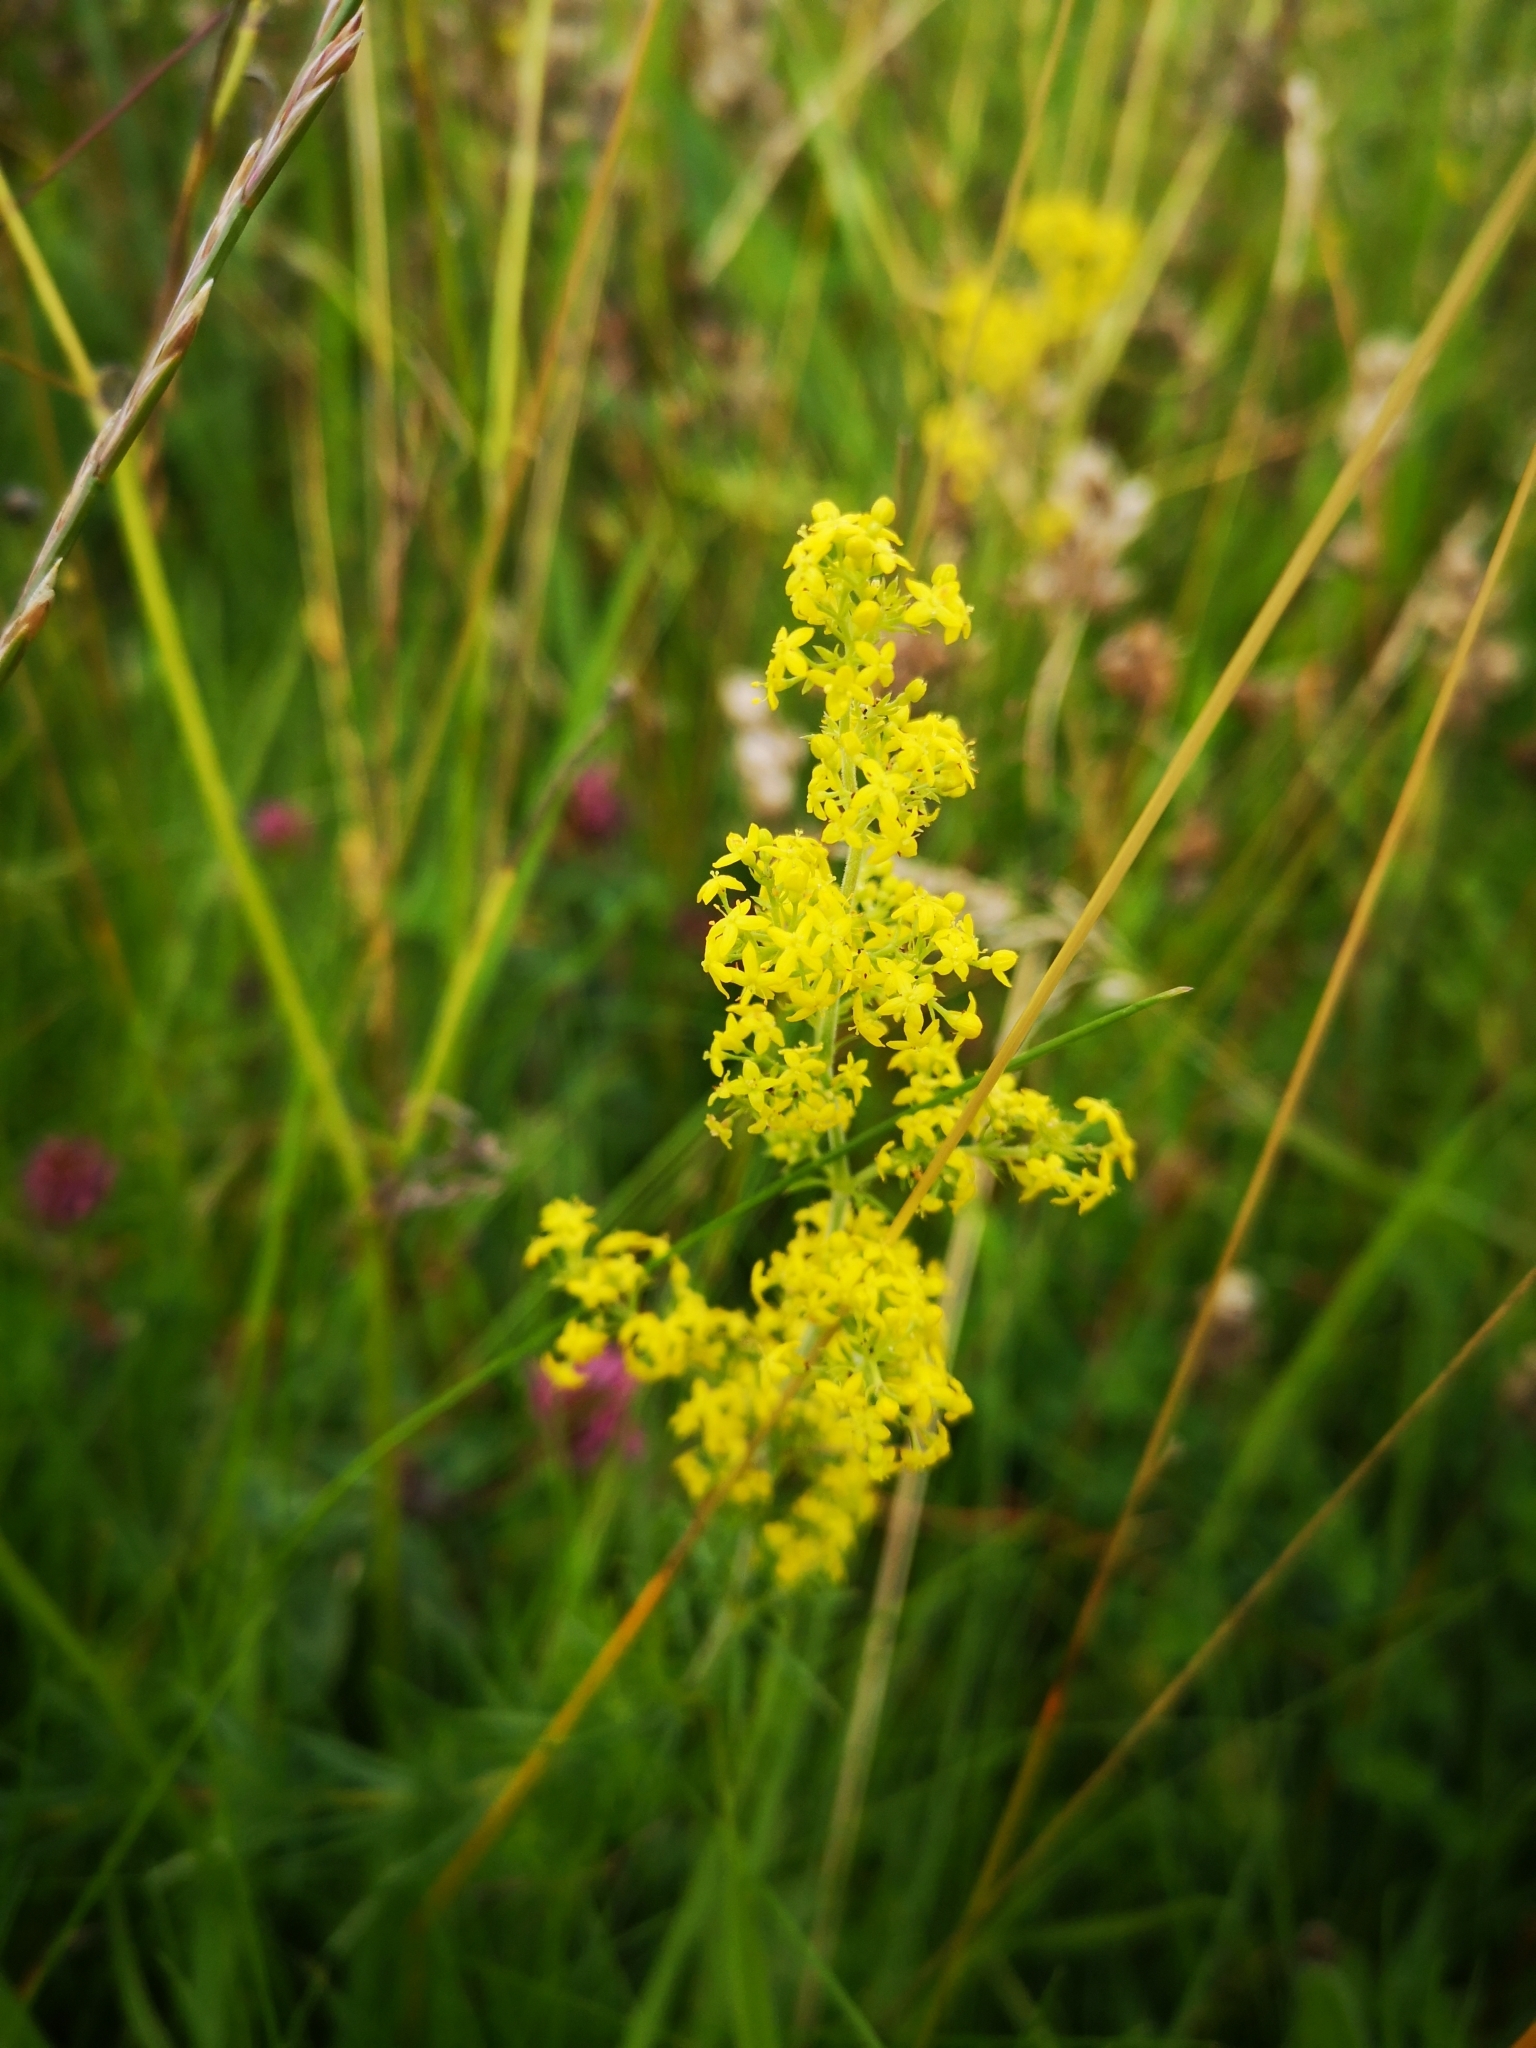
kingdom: Plantae
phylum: Tracheophyta
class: Magnoliopsida
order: Gentianales
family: Rubiaceae
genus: Galium
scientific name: Galium verum
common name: Lady's bedstraw
